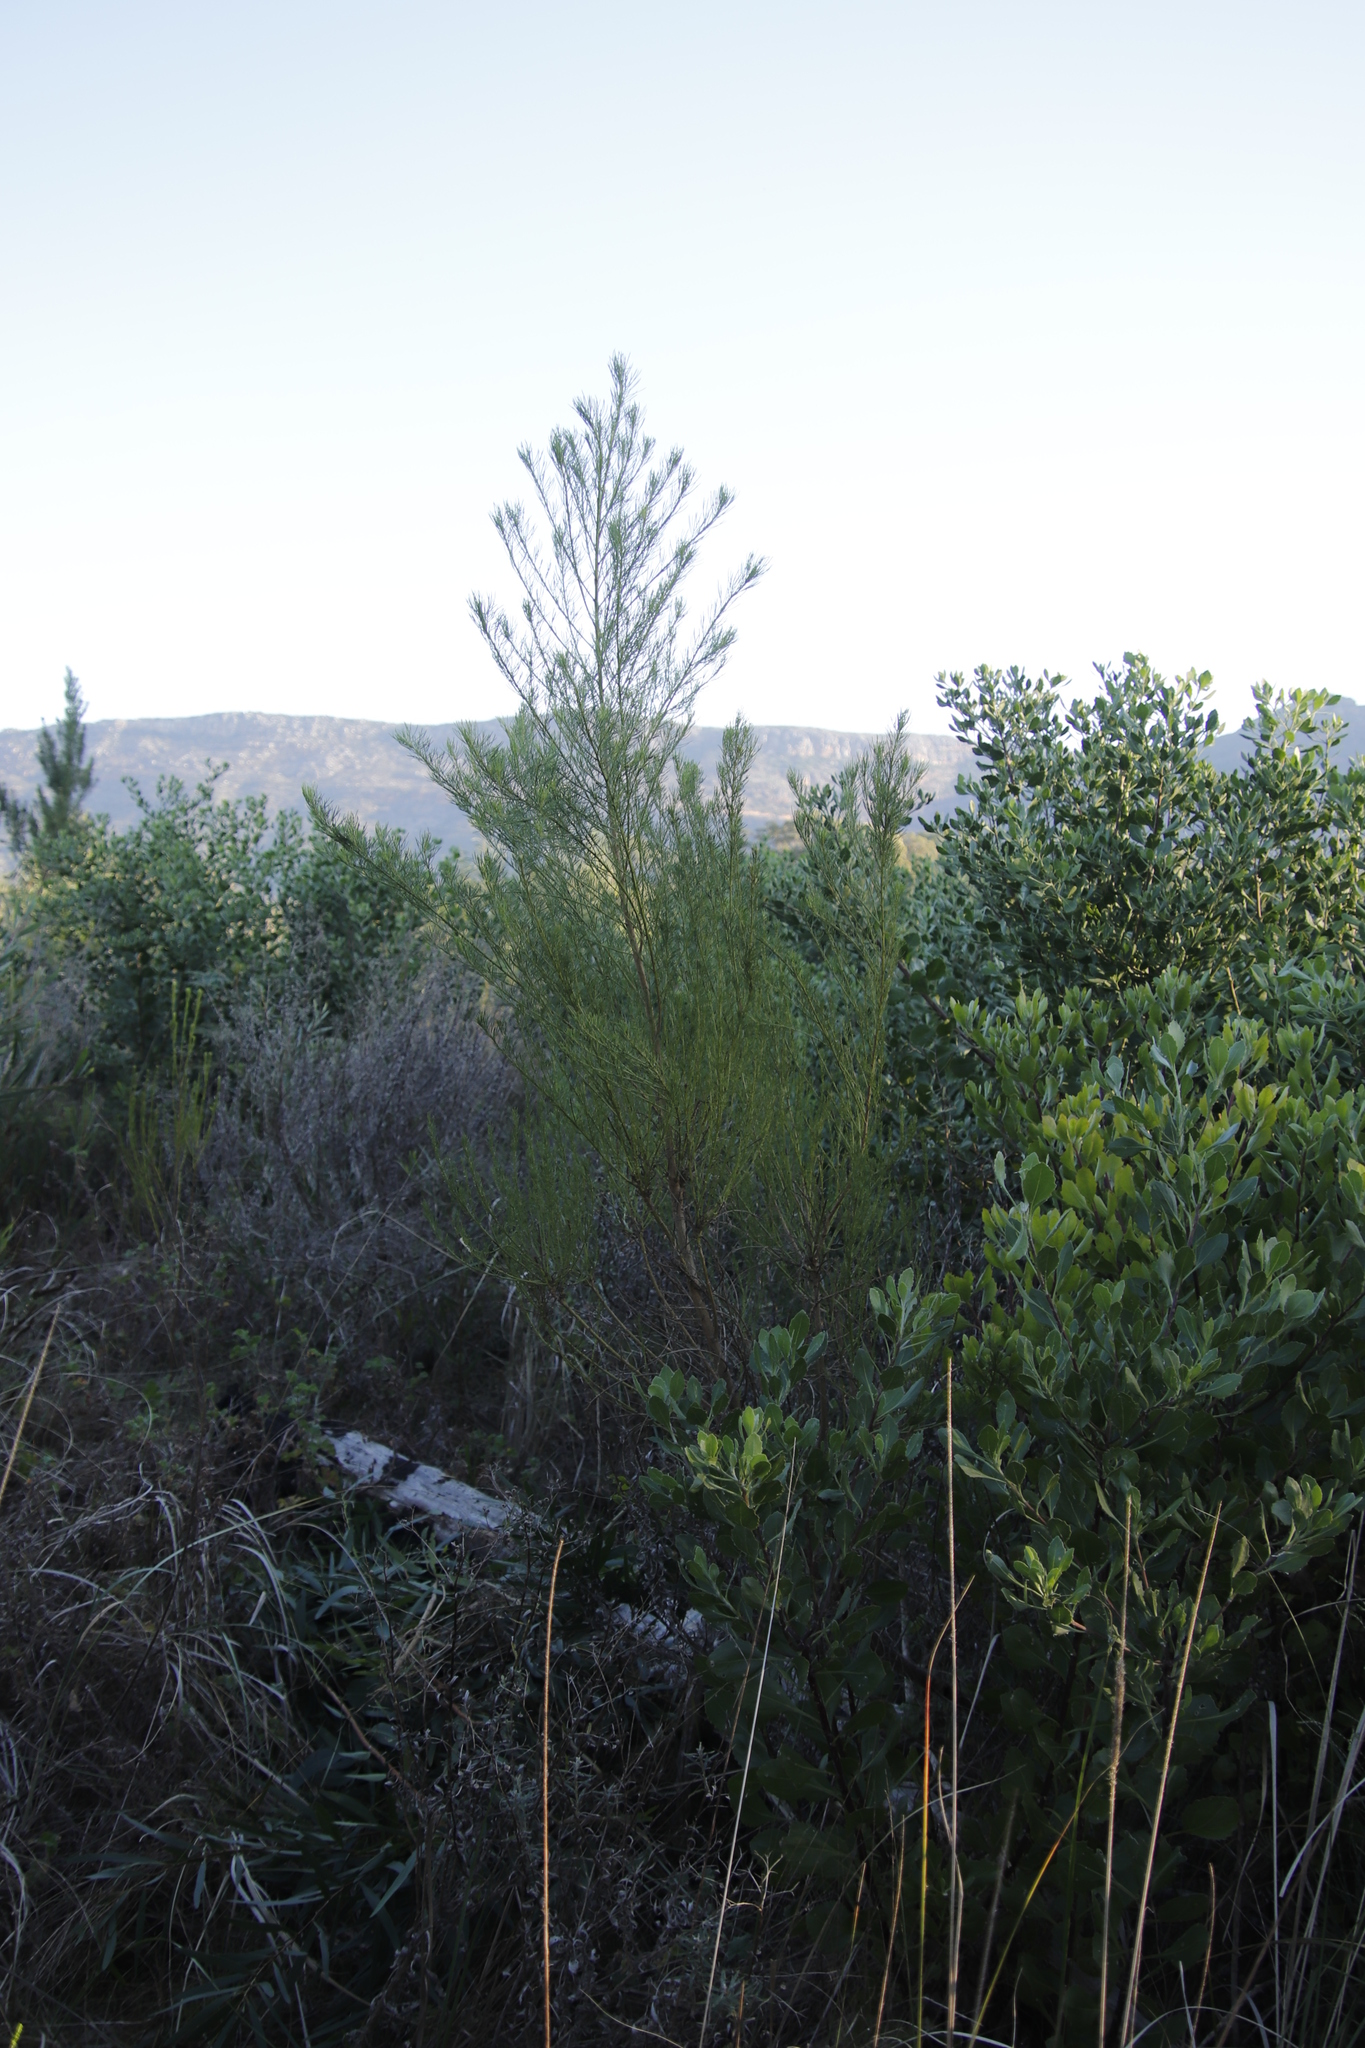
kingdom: Plantae
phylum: Tracheophyta
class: Magnoliopsida
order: Fabales
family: Fabaceae
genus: Psoralea
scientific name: Psoralea pinnata
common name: African scurfpea
